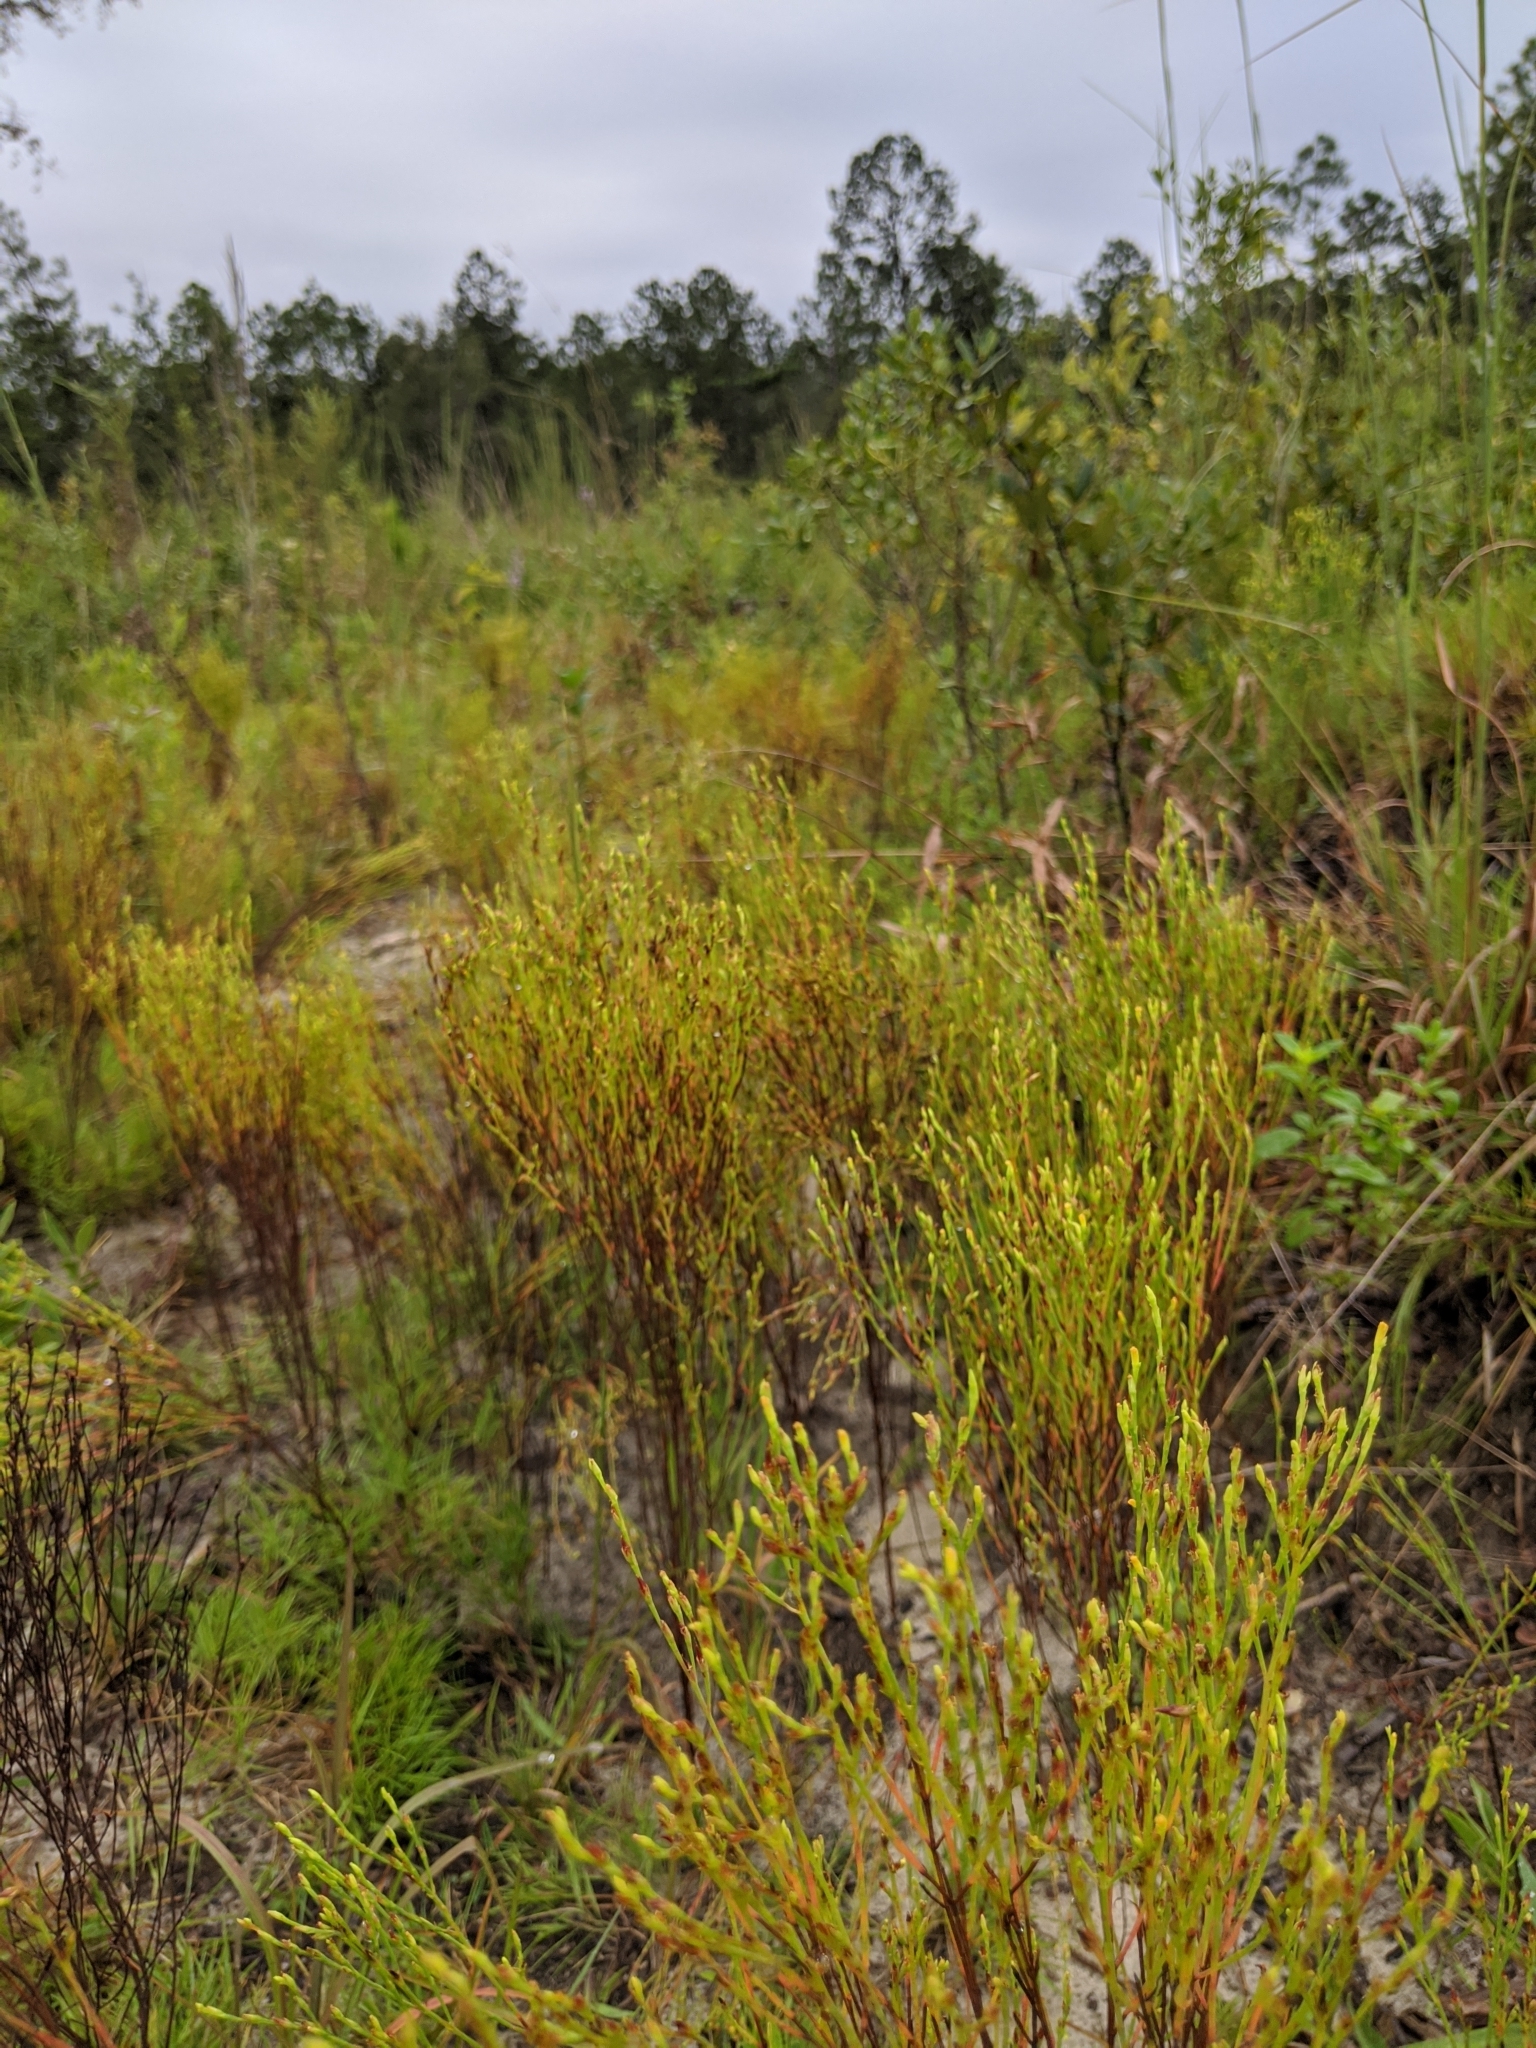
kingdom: Plantae
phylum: Tracheophyta
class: Magnoliopsida
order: Malpighiales
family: Hypericaceae
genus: Hypericum
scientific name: Hypericum gentianoides
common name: Gentian-leaved st. john's-wort
